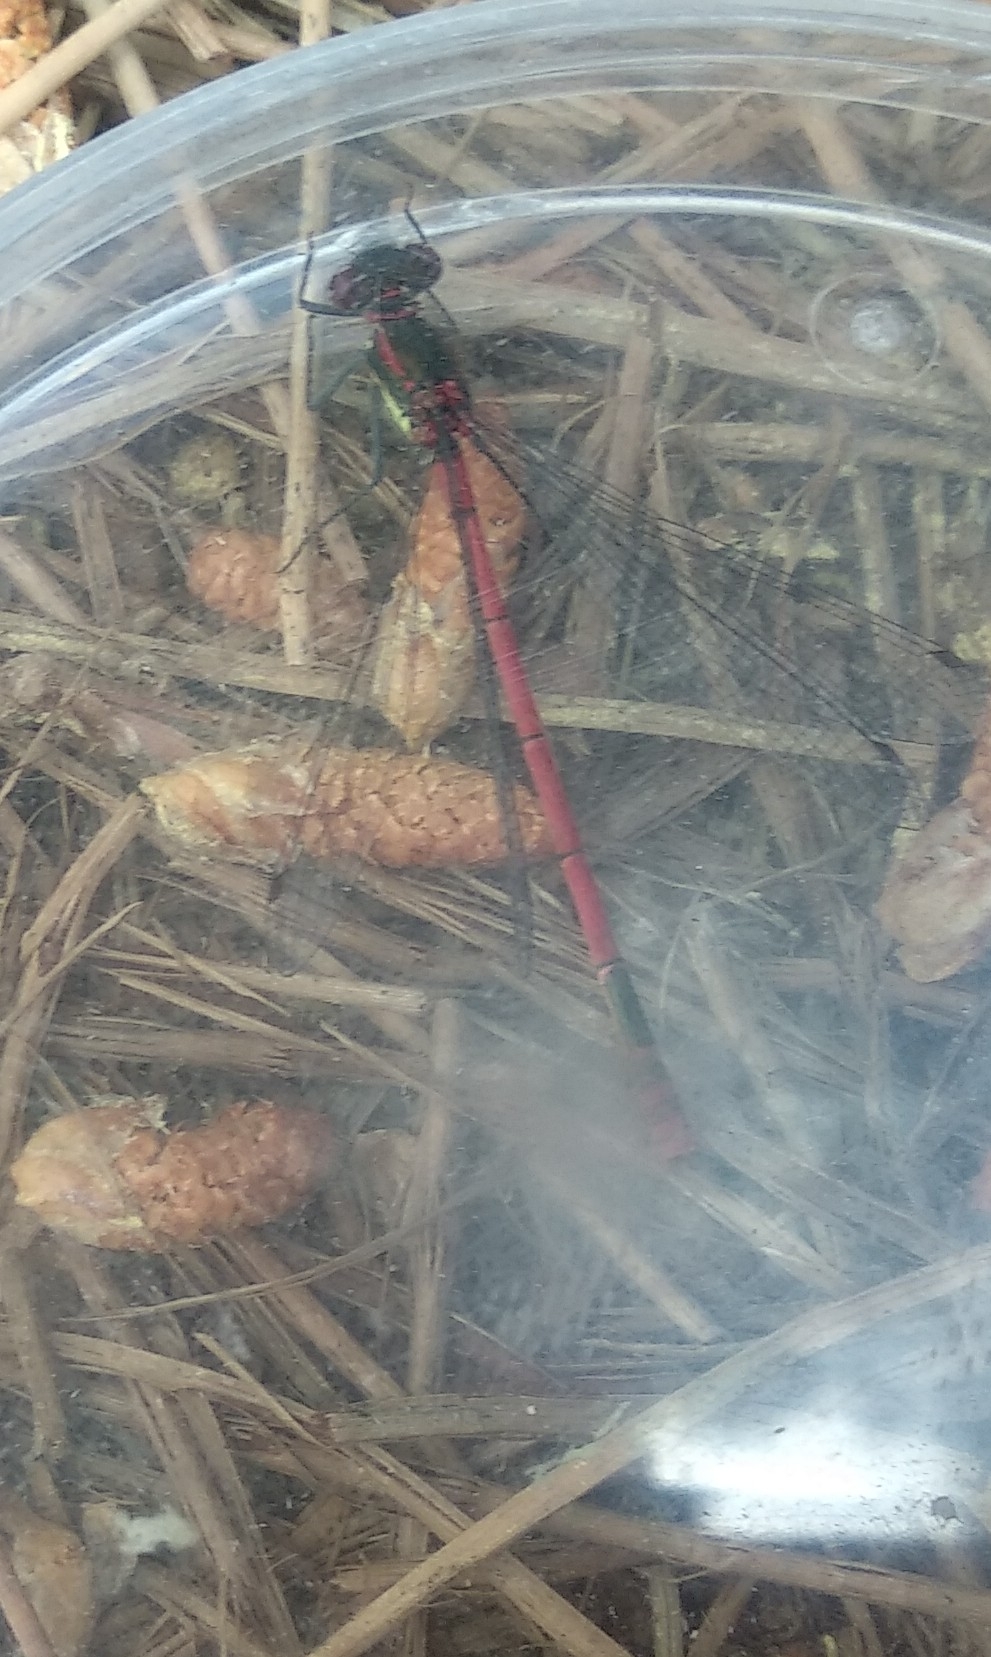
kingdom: Animalia
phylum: Arthropoda
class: Insecta
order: Odonata
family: Coenagrionidae
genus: Pyrrhosoma
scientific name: Pyrrhosoma nymphula
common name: Large red damsel
